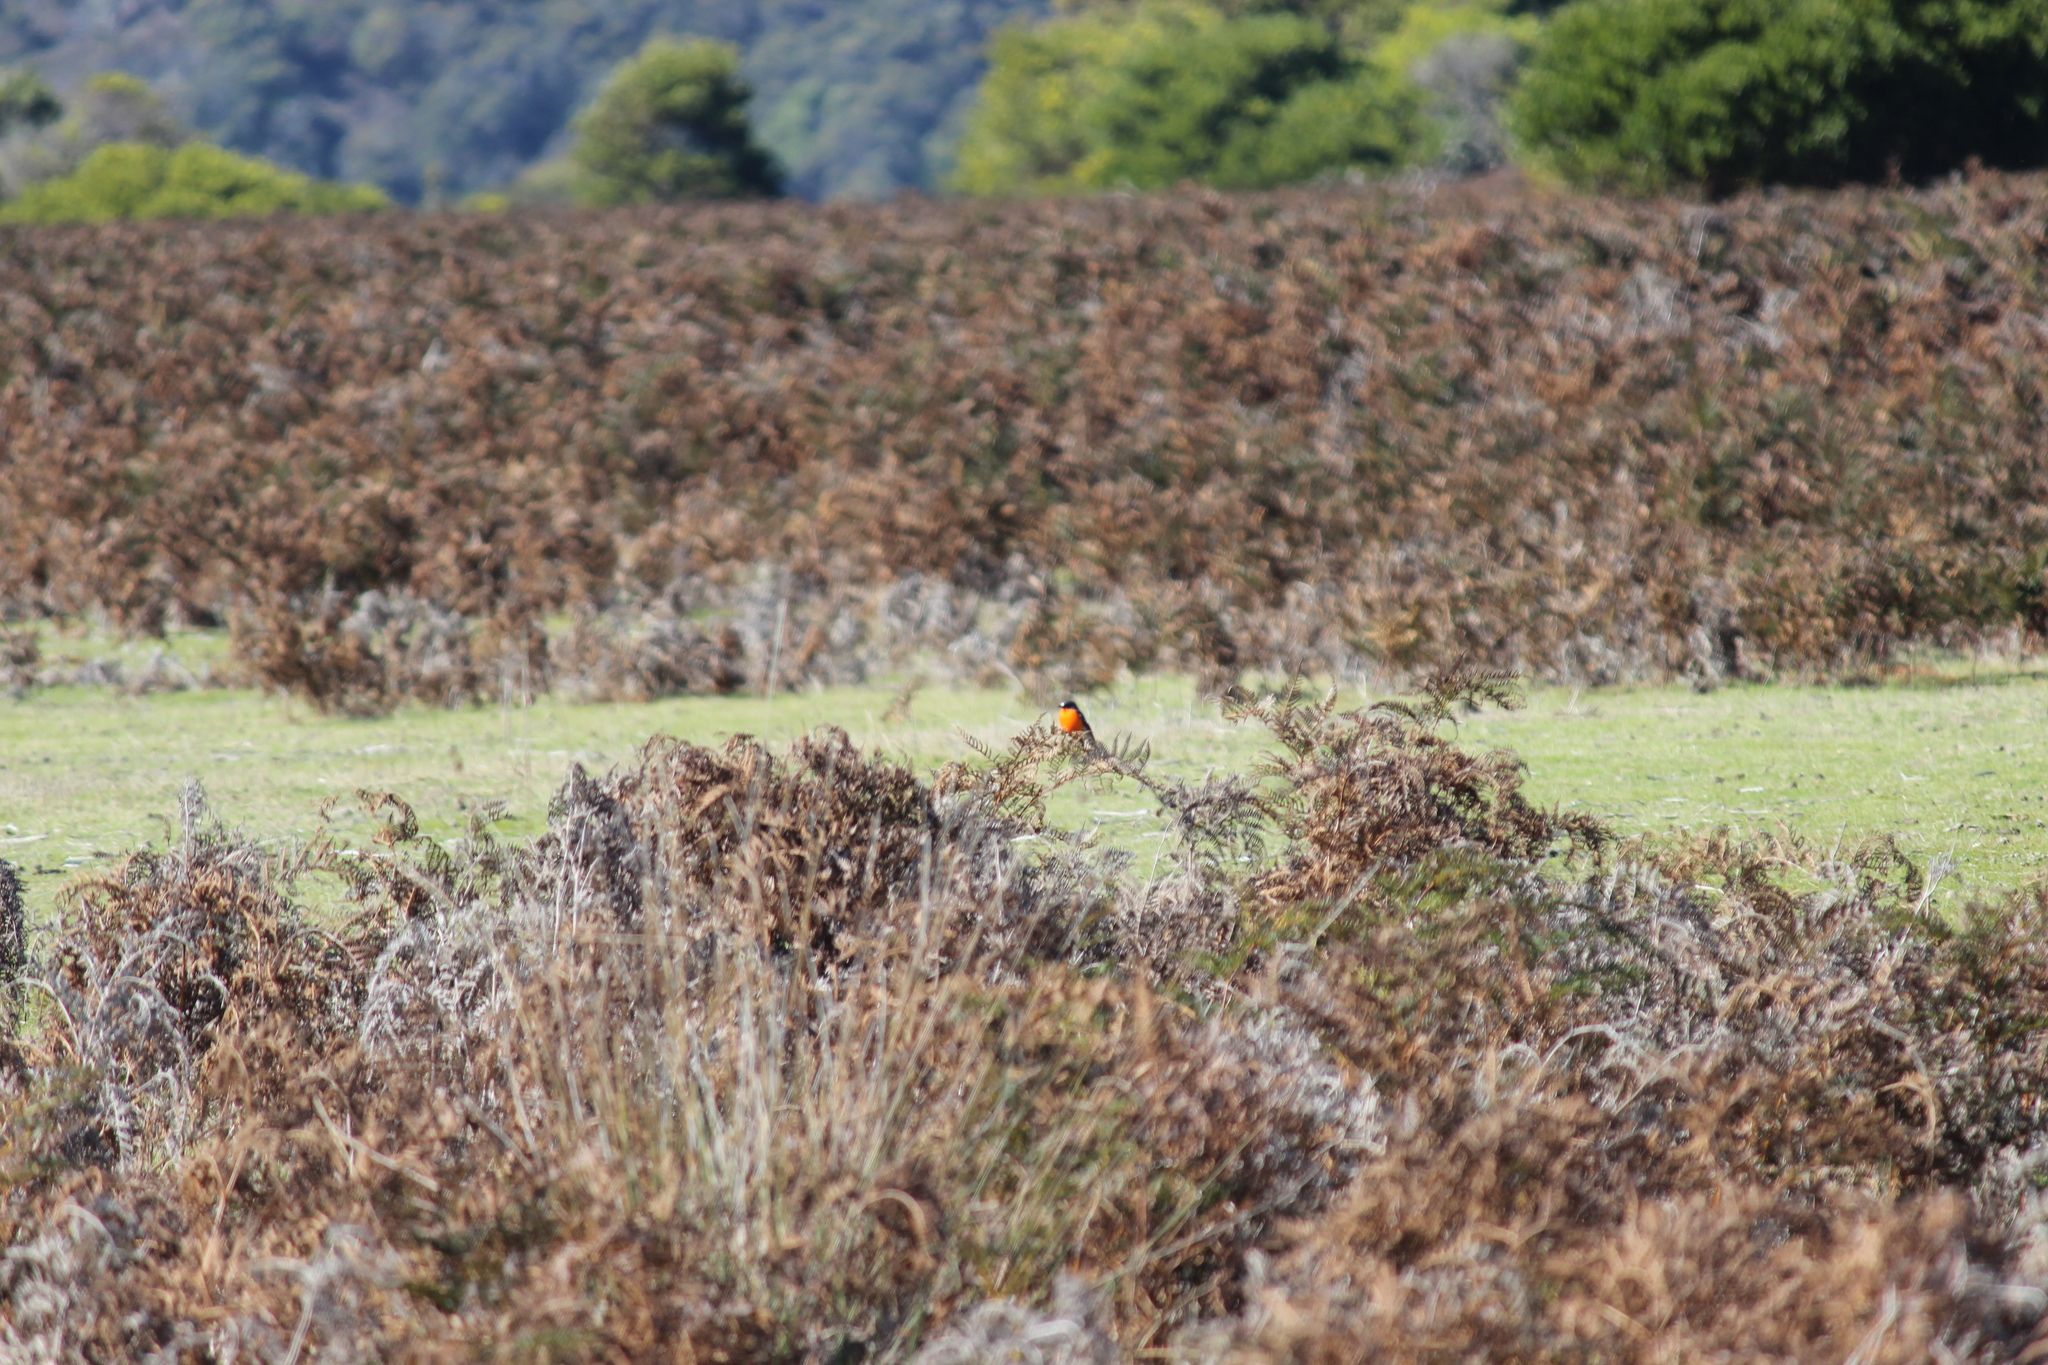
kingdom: Animalia
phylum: Chordata
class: Aves
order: Passeriformes
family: Petroicidae
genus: Petroica
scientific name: Petroica phoenicea
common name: Flame robin
